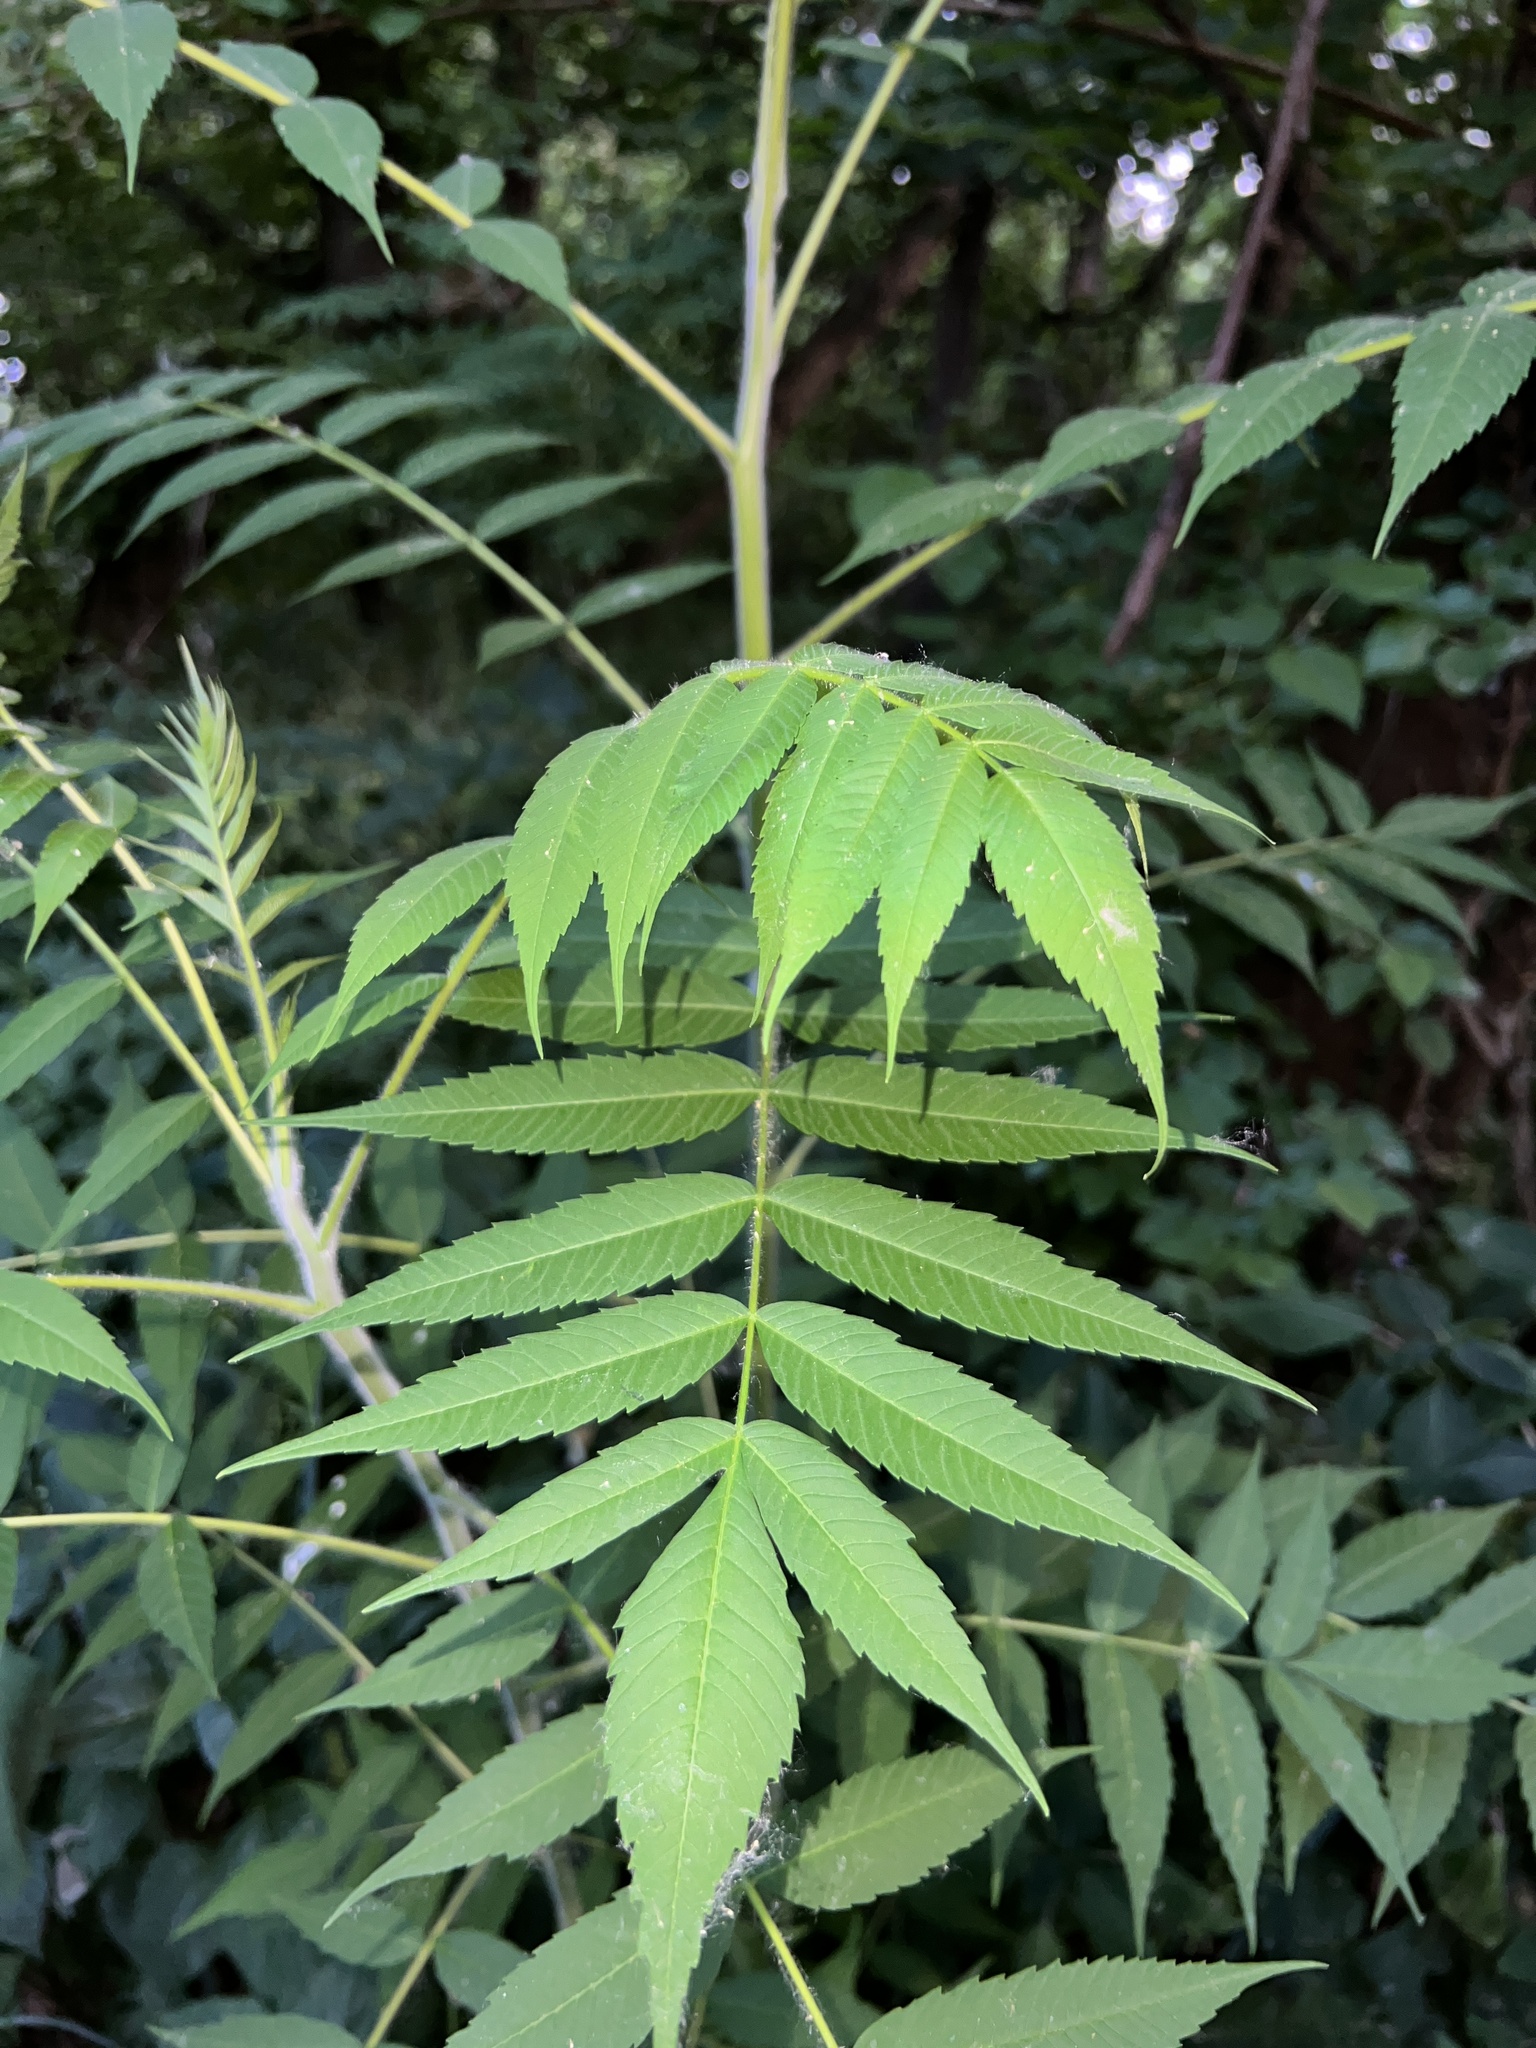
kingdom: Plantae
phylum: Tracheophyta
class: Magnoliopsida
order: Sapindales
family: Anacardiaceae
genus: Rhus
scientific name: Rhus typhina
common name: Staghorn sumac
